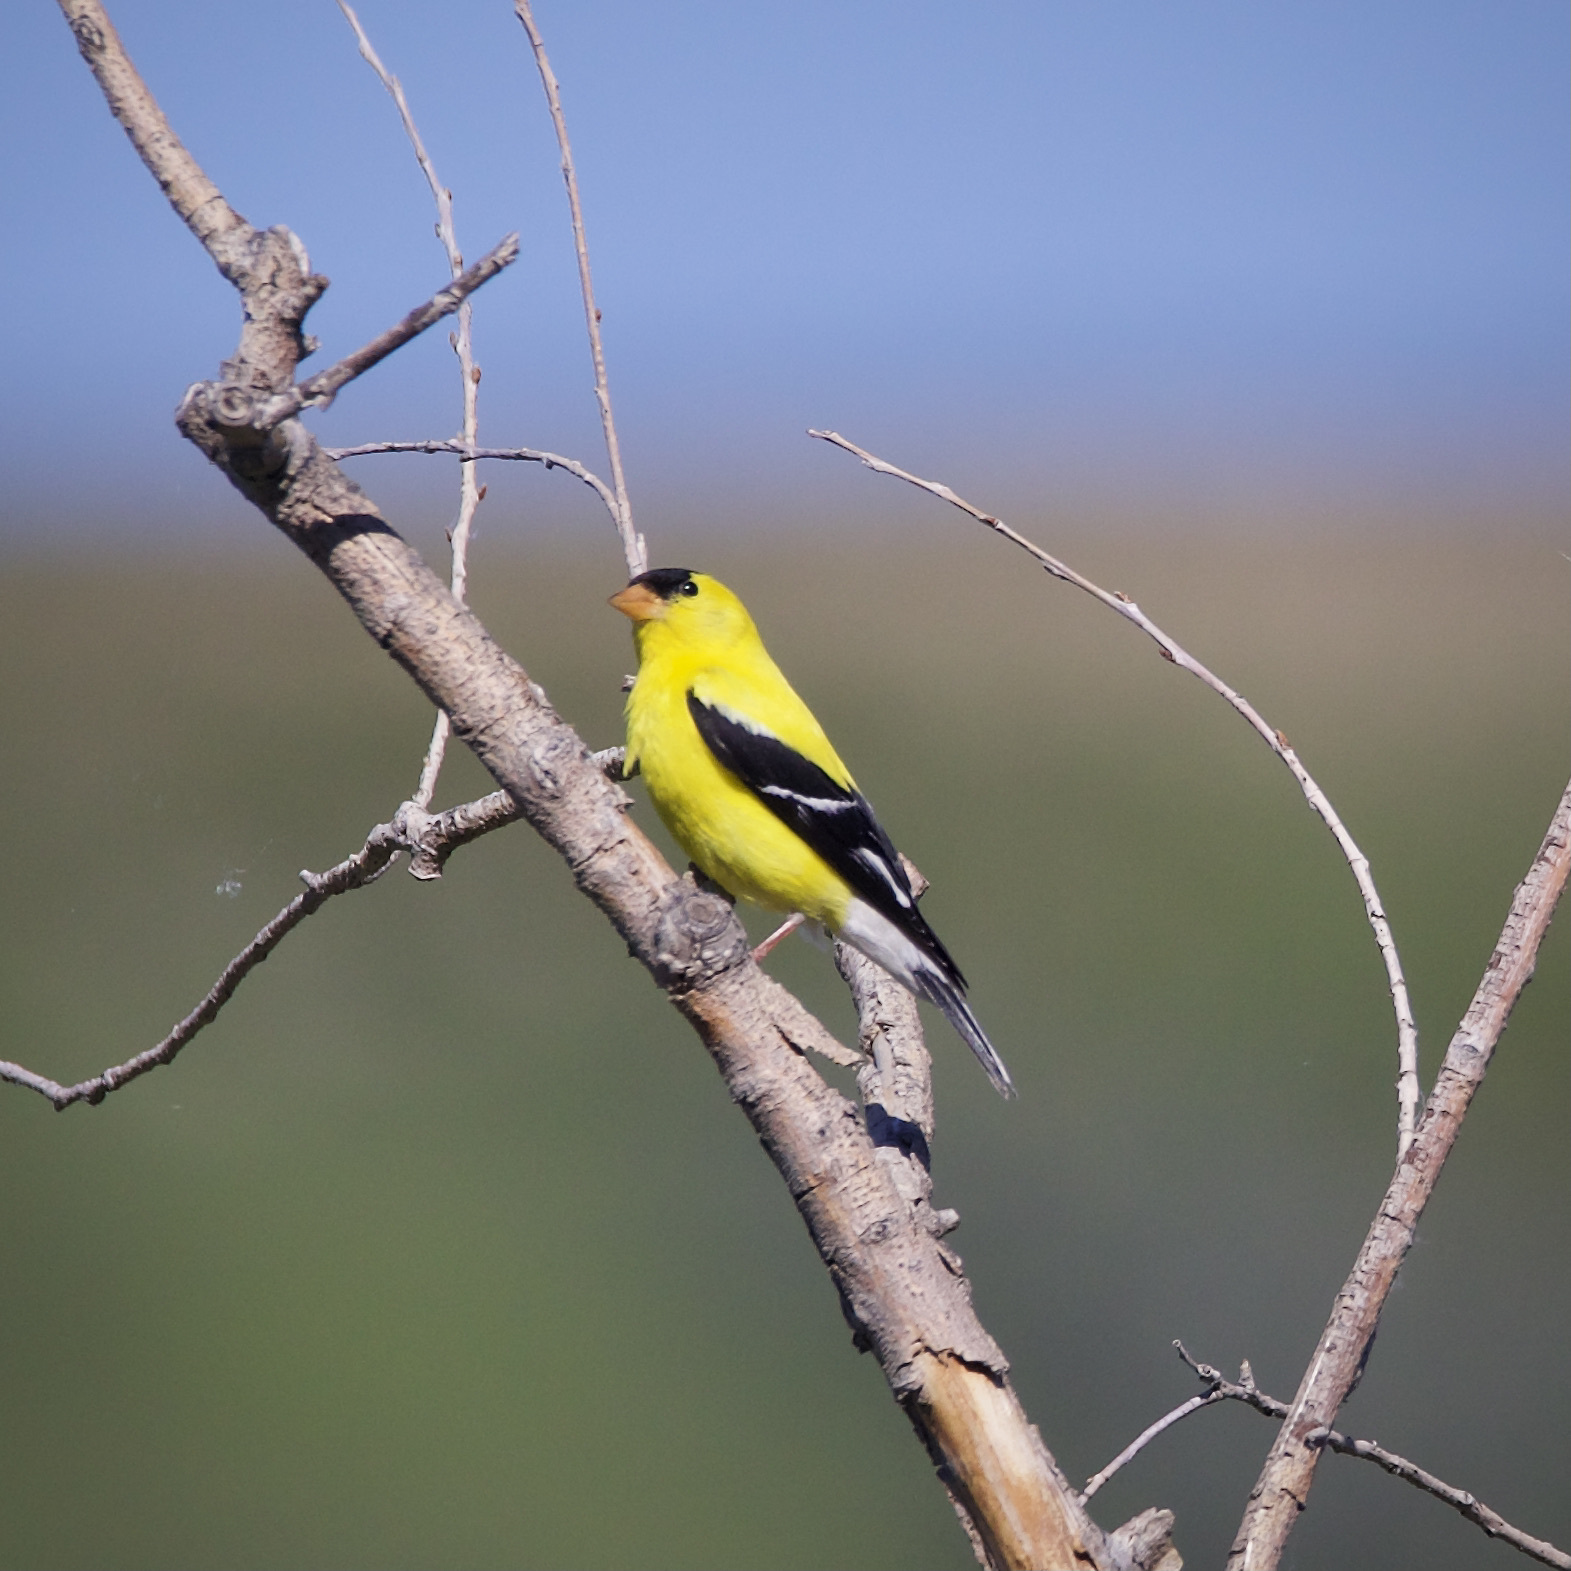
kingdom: Animalia
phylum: Chordata
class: Aves
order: Passeriformes
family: Fringillidae
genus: Spinus
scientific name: Spinus tristis
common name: American goldfinch
